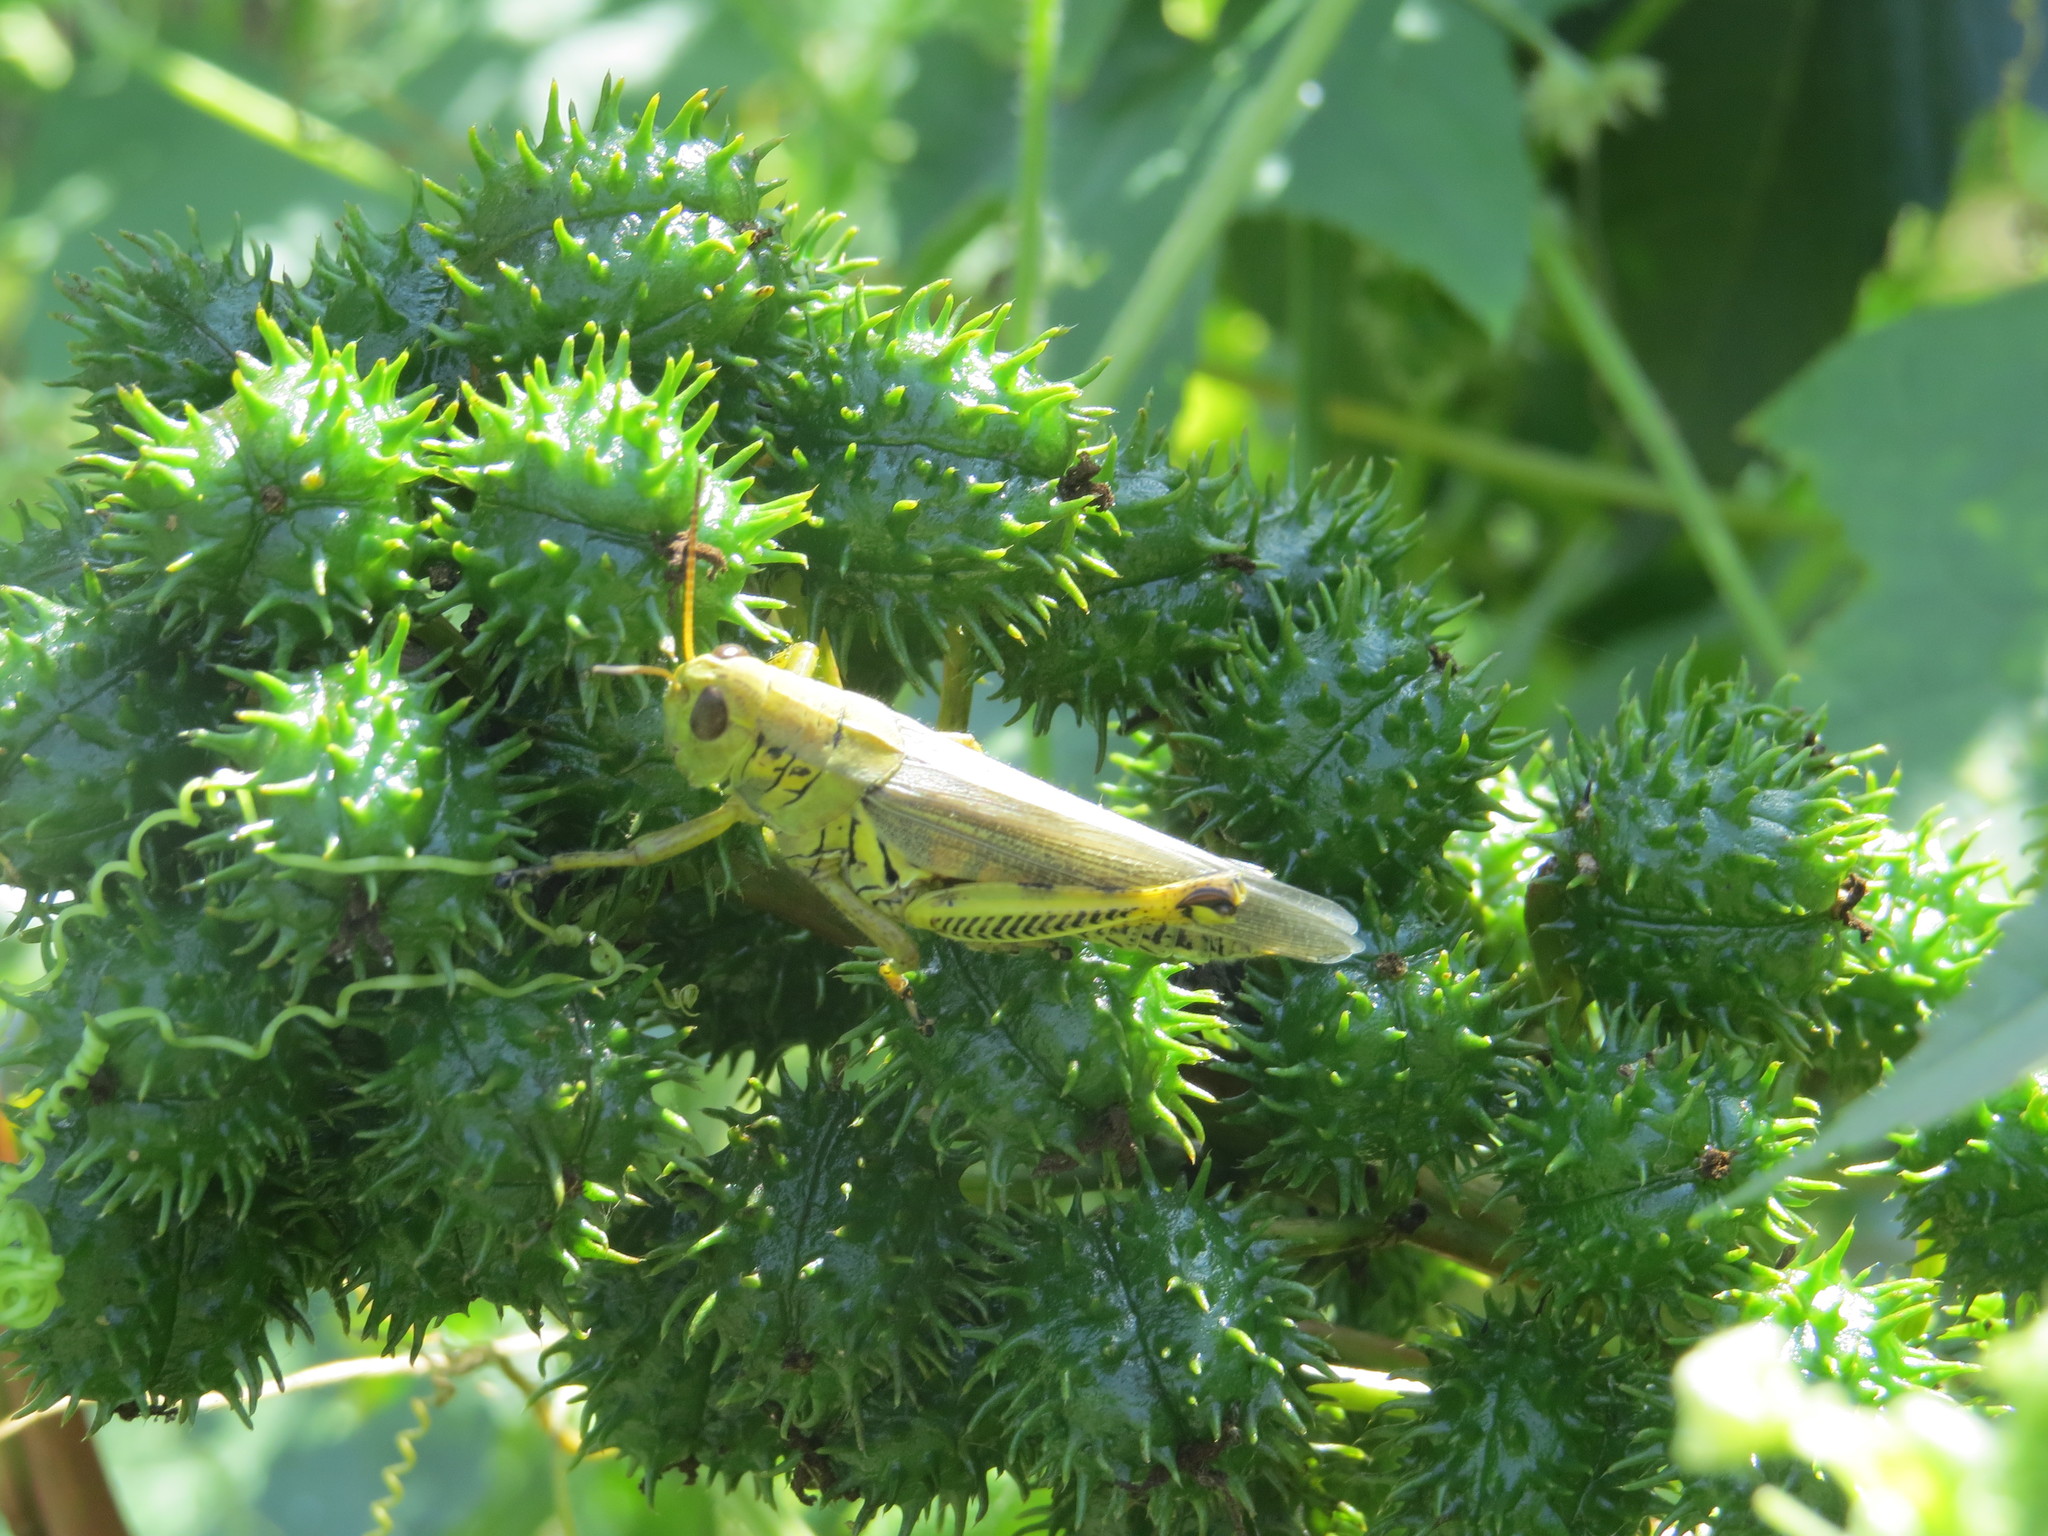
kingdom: Animalia
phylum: Arthropoda
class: Insecta
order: Orthoptera
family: Acrididae
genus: Melanoplus
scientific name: Melanoplus differentialis
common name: Differential grasshopper
